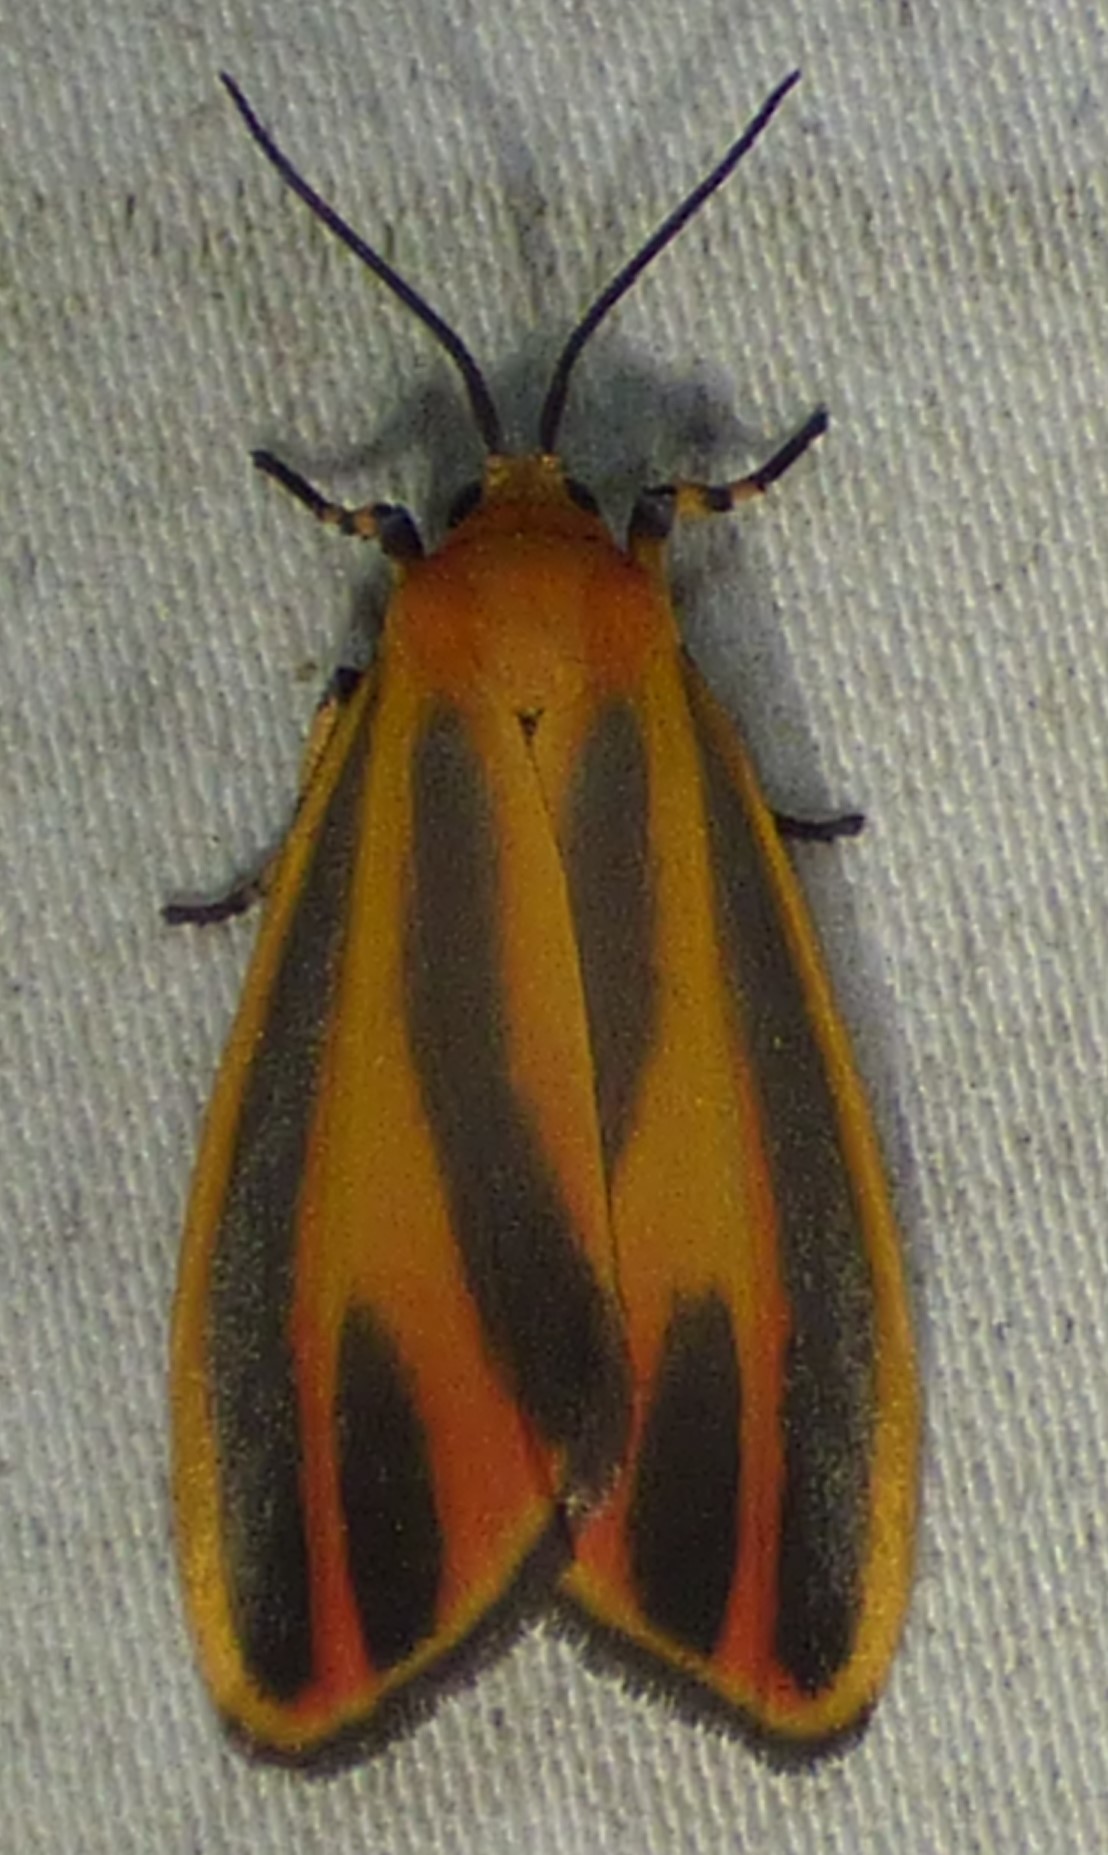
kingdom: Animalia
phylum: Arthropoda
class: Insecta
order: Lepidoptera
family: Erebidae
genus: Hypoprepia
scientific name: Hypoprepia fucosa
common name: Painted lichen moth
